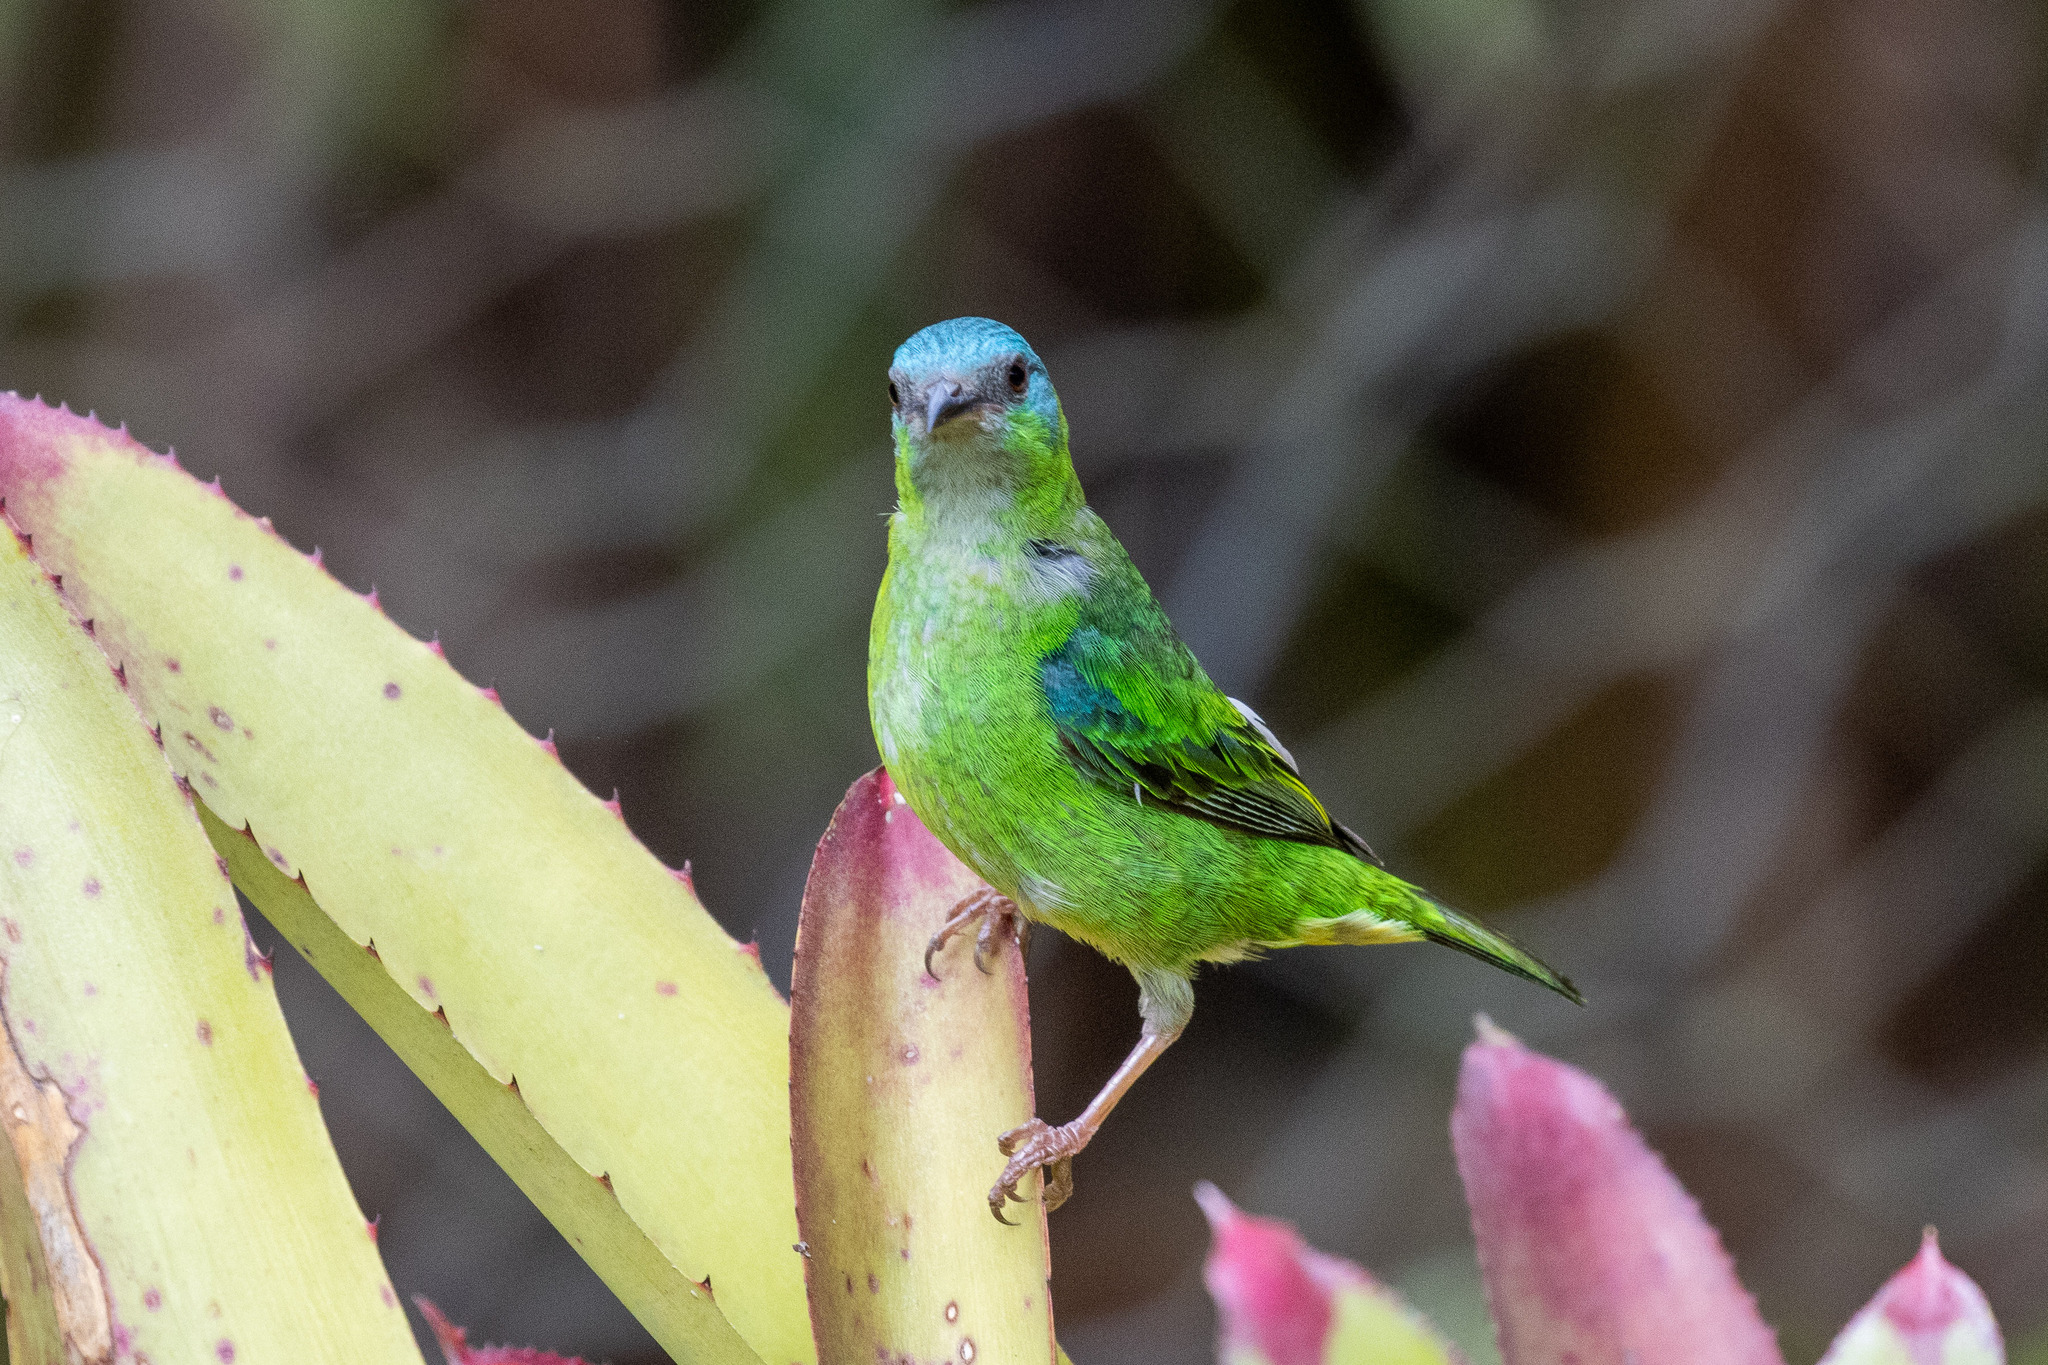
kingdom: Animalia
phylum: Chordata
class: Aves
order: Passeriformes
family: Thraupidae
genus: Dacnis
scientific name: Dacnis cayana
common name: Blue dacnis
